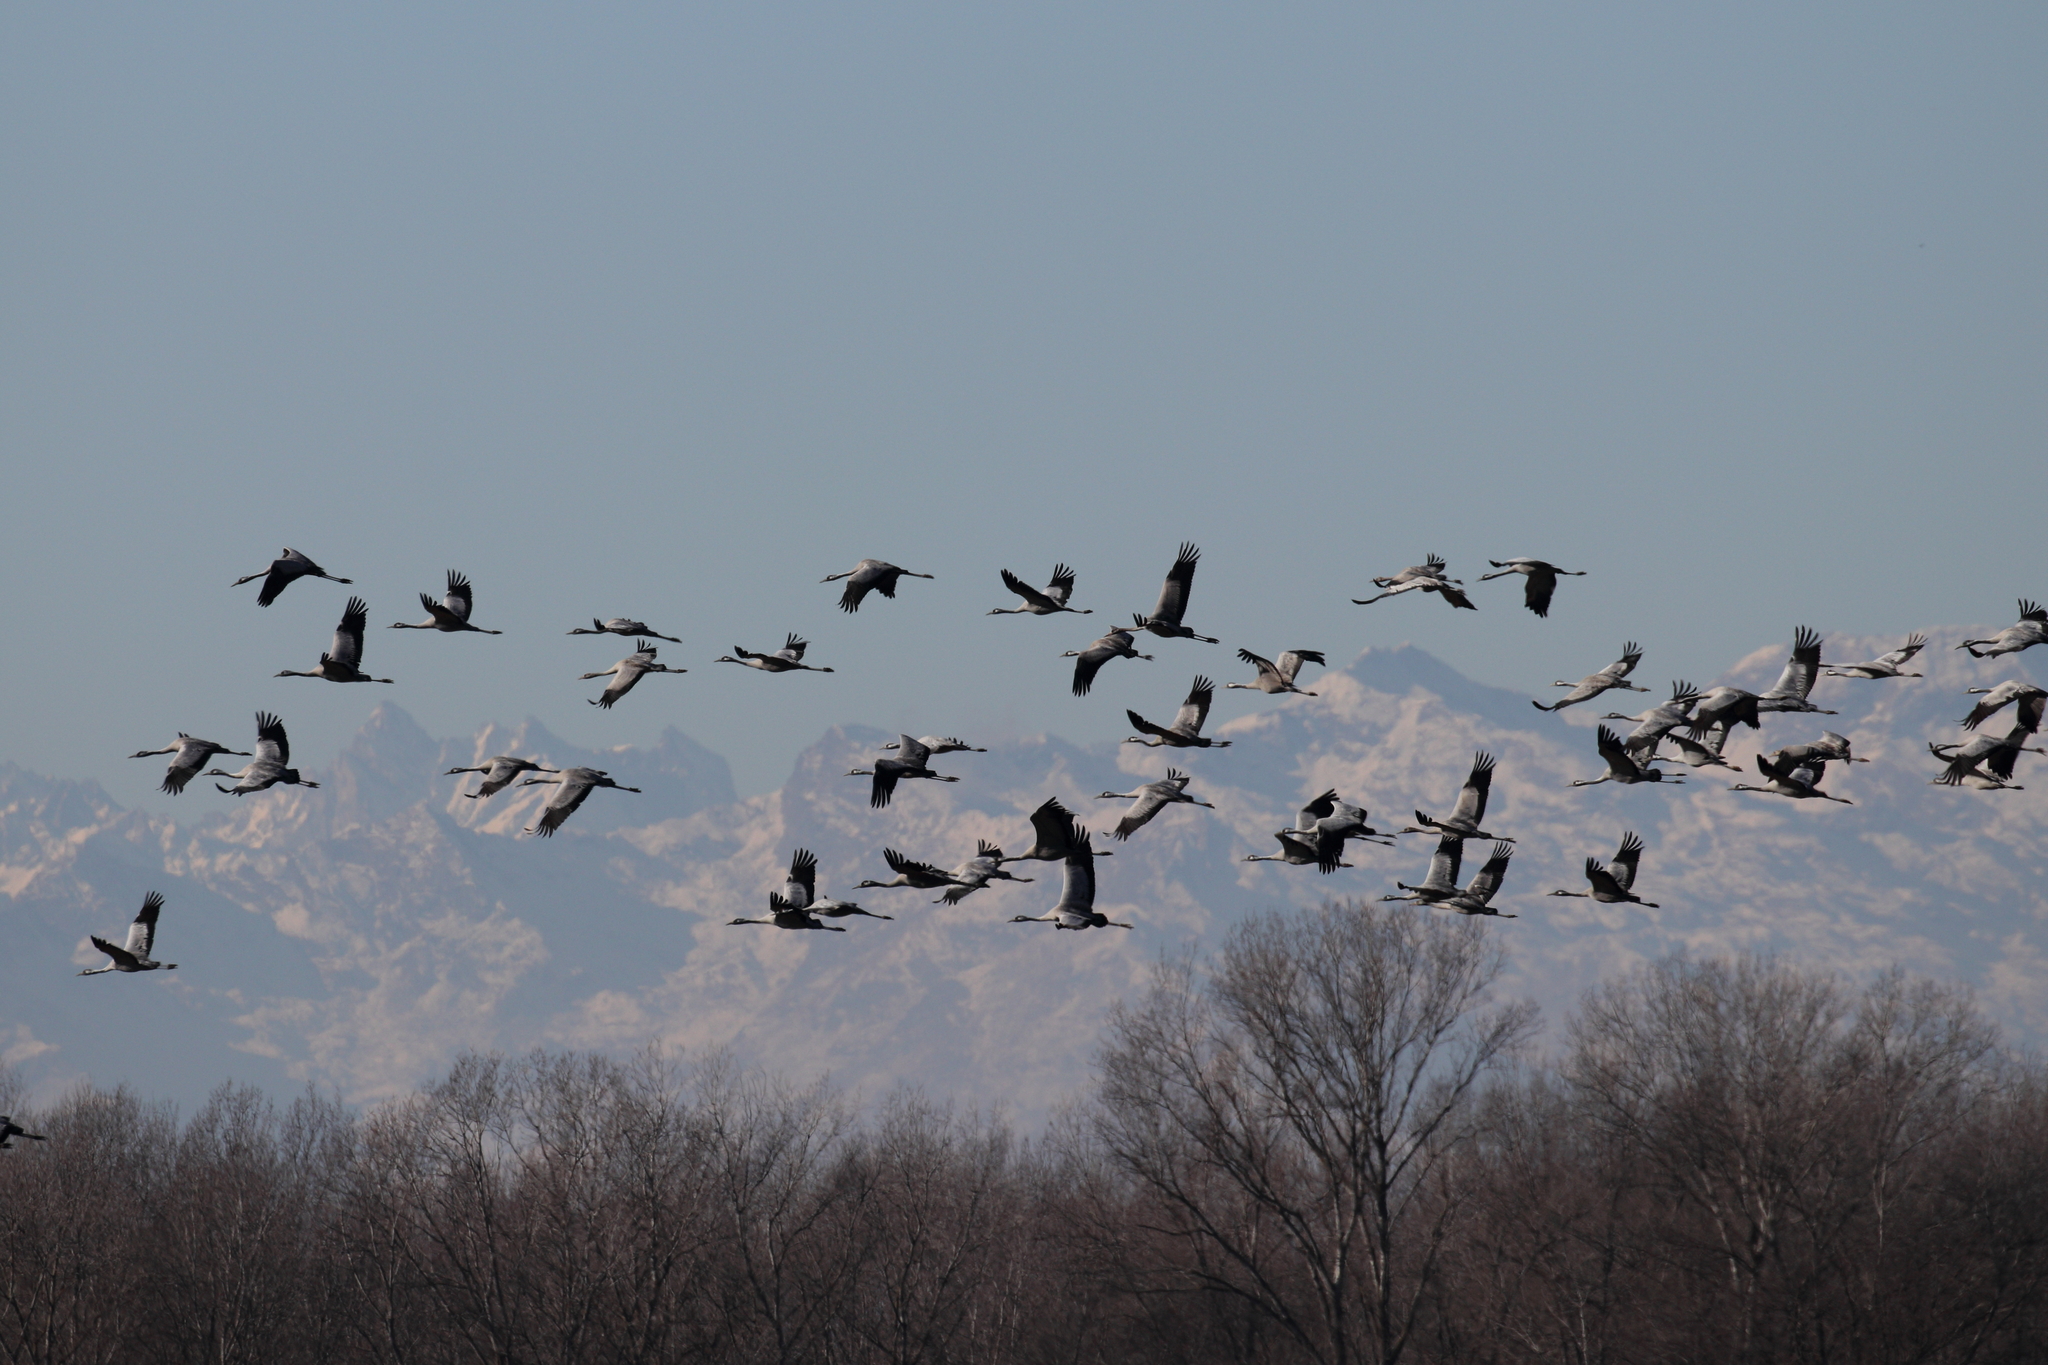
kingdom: Animalia
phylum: Chordata
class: Aves
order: Gruiformes
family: Gruidae
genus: Grus
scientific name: Grus grus
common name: Common crane
